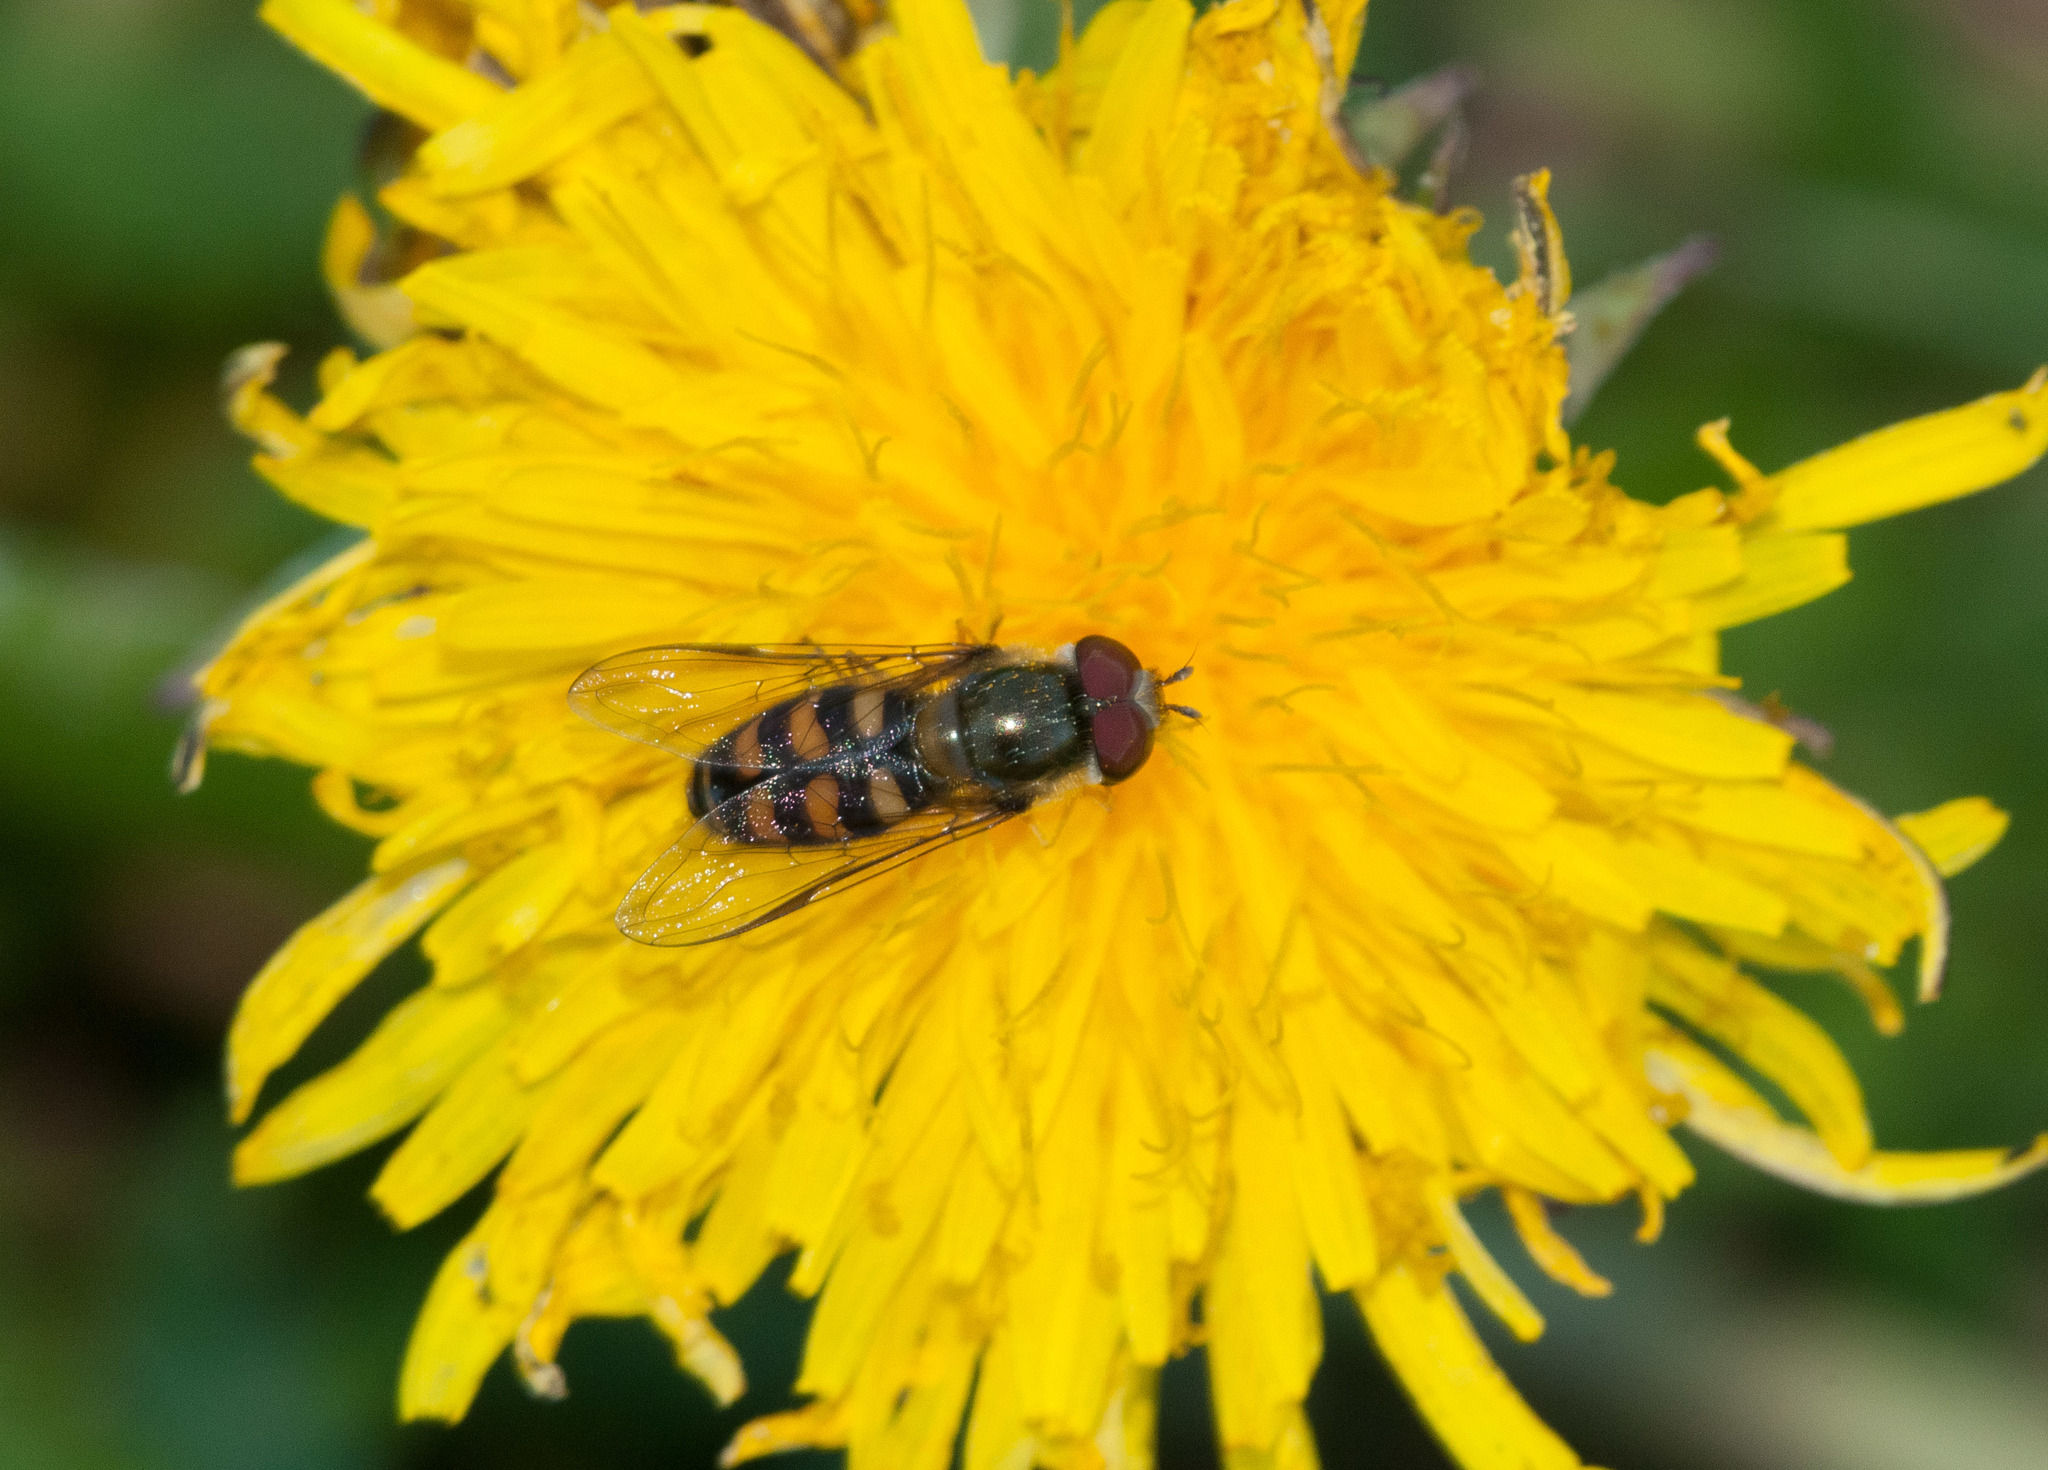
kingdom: Animalia
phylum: Arthropoda
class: Insecta
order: Diptera
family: Syrphidae
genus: Lapposyrphus
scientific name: Lapposyrphus lapponicus
